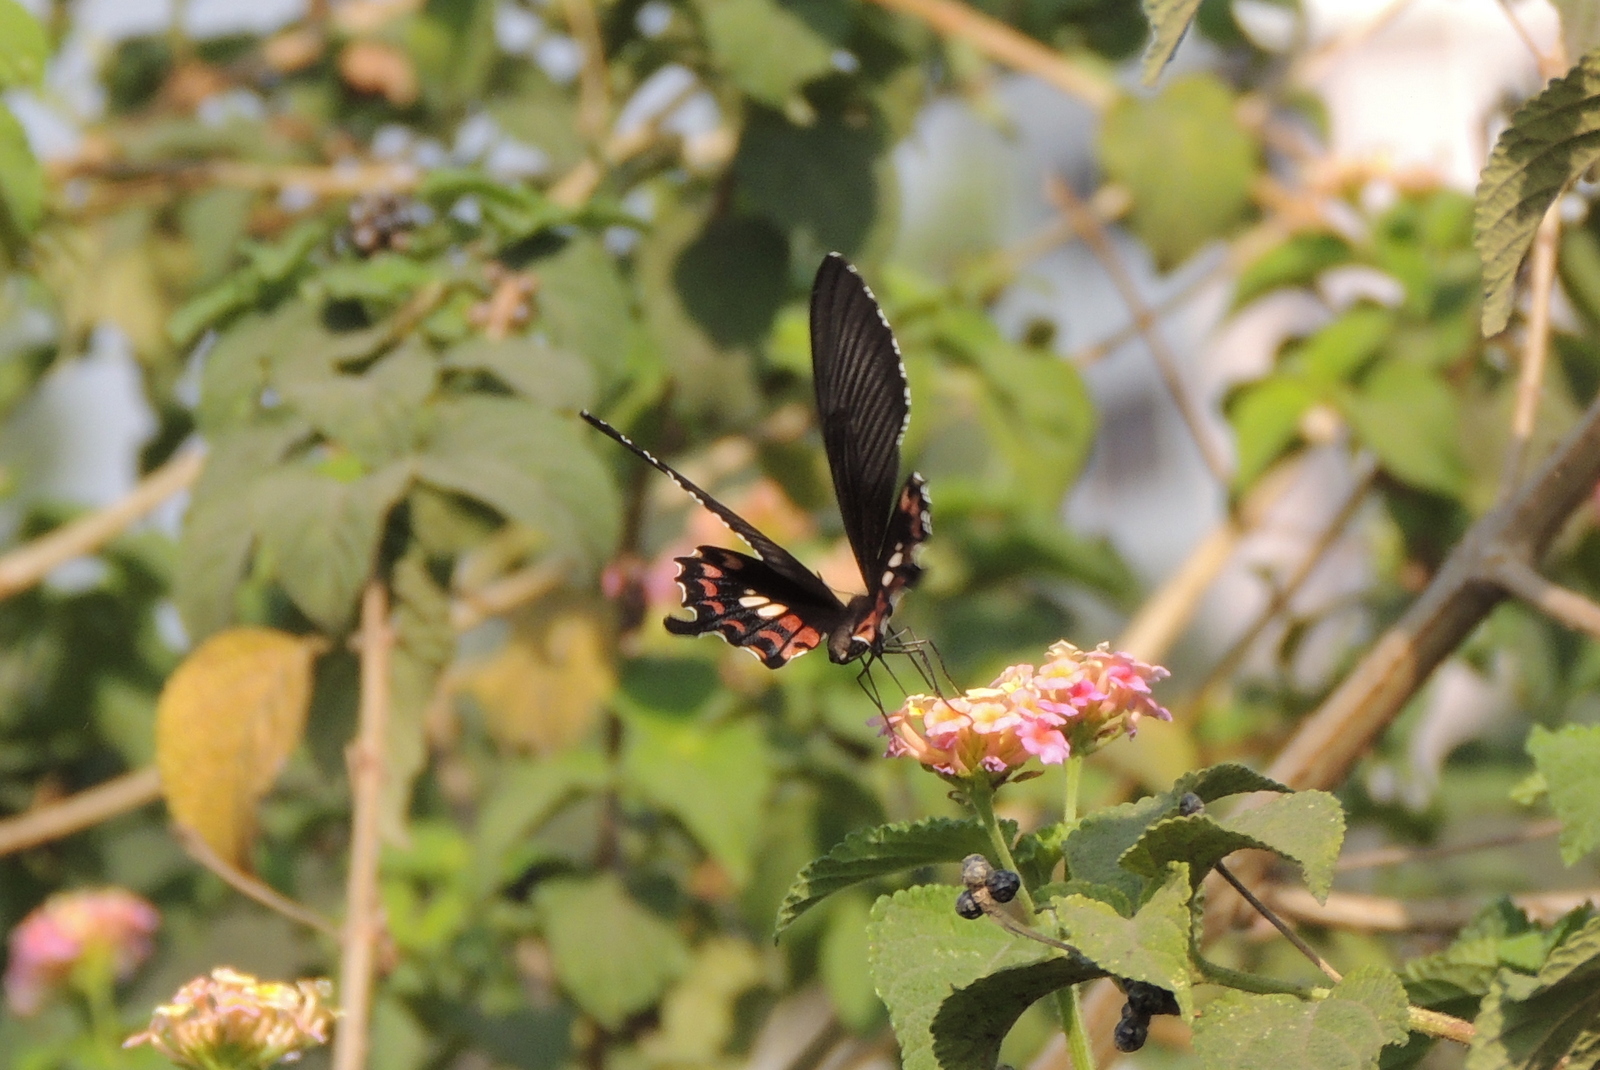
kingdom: Animalia
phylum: Arthropoda
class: Insecta
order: Lepidoptera
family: Papilionidae
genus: Papilio
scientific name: Papilio polytes
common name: Common mormon
